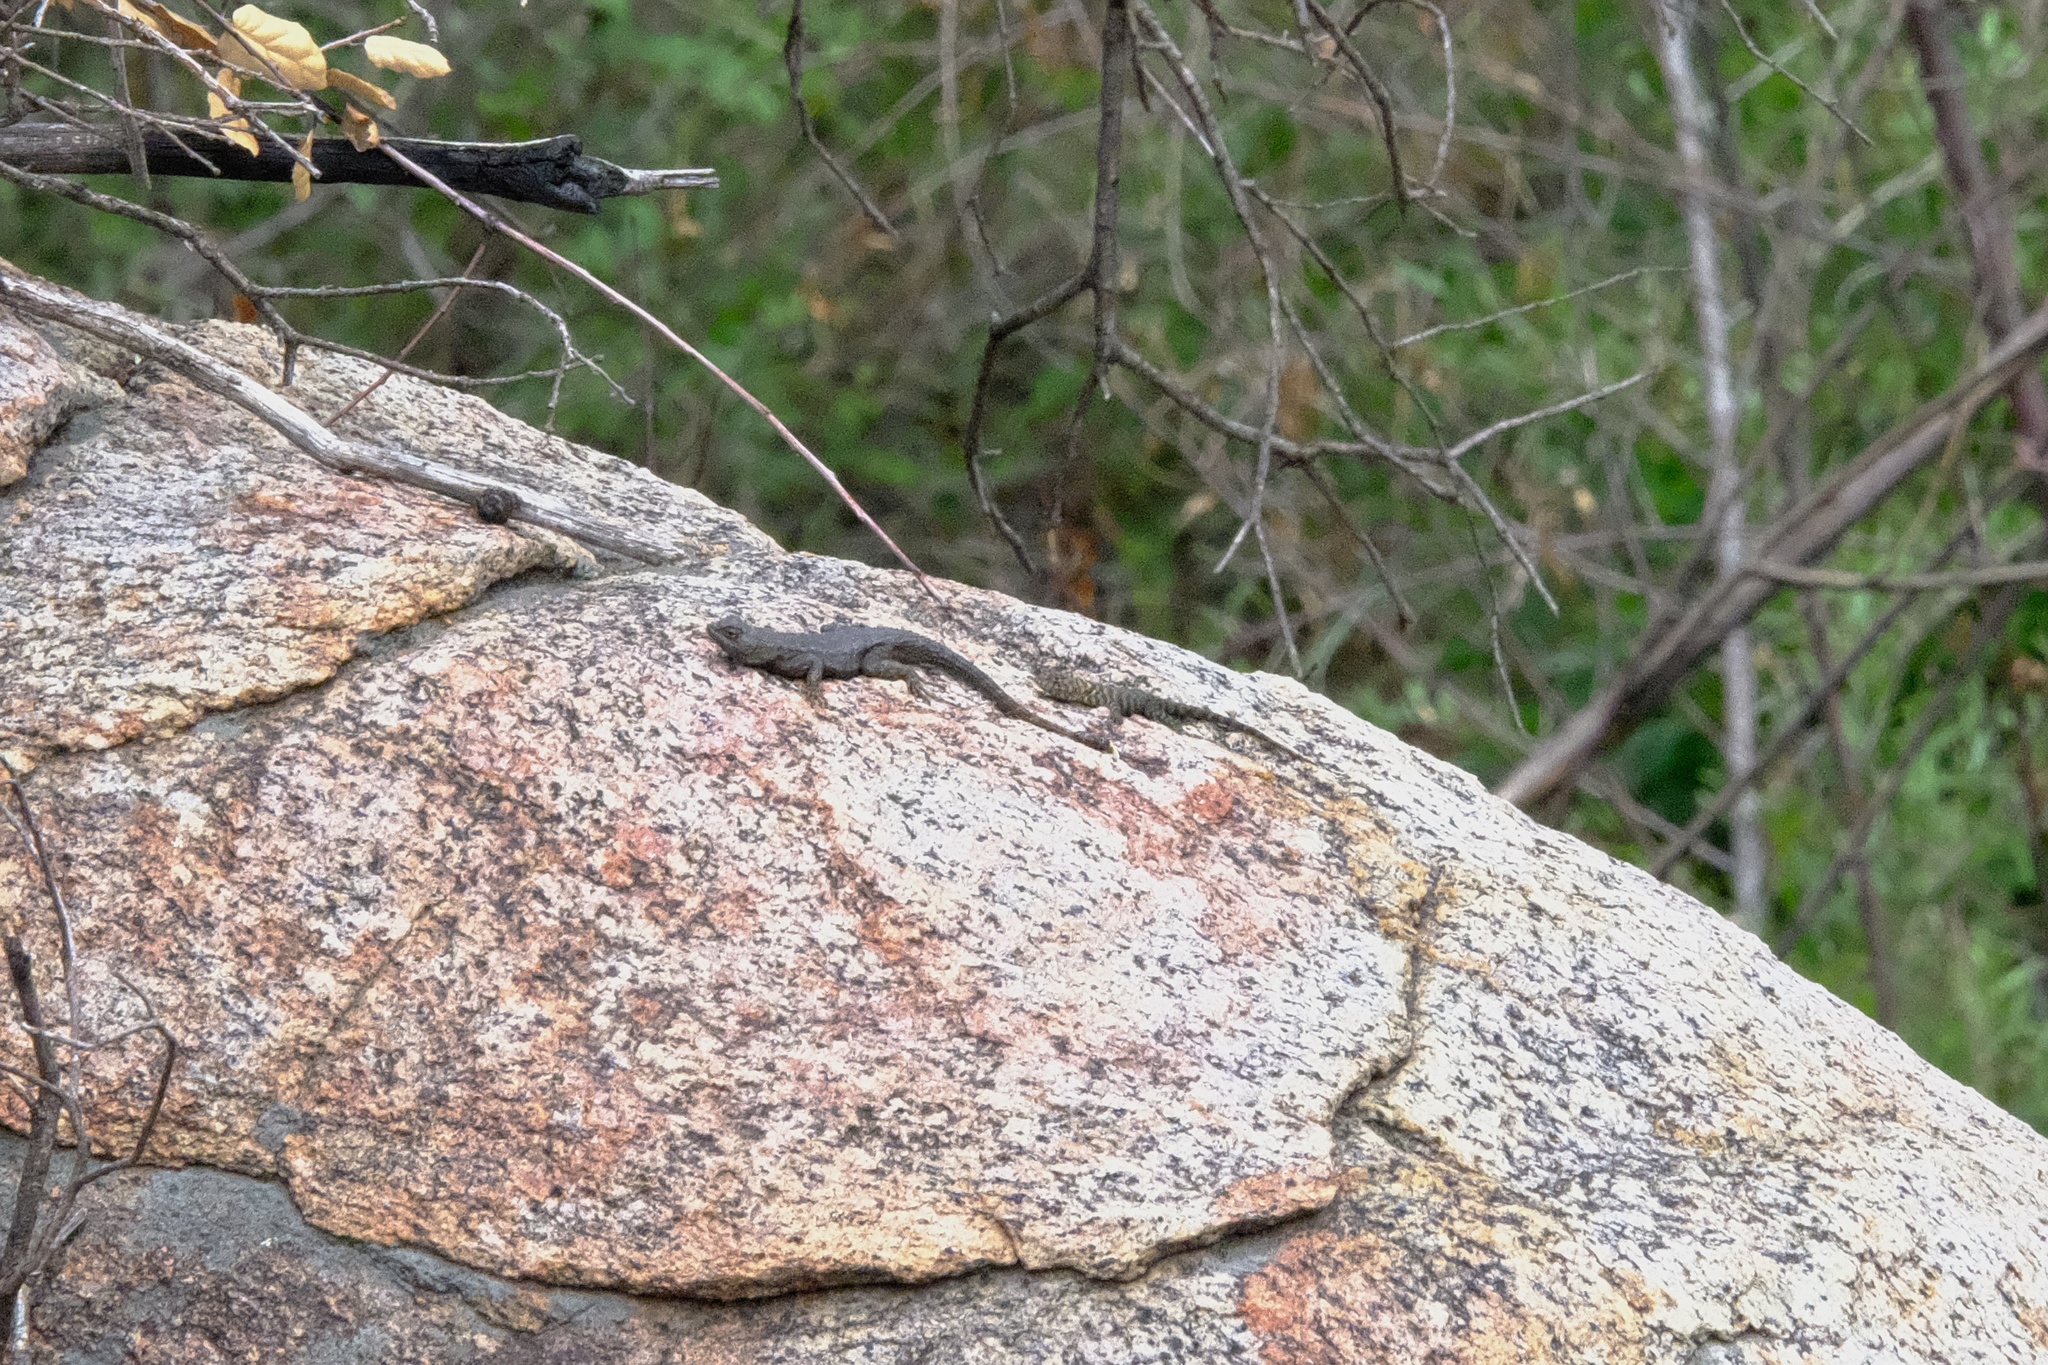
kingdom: Animalia
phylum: Chordata
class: Squamata
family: Phrynosomatidae
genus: Sceloporus
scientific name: Sceloporus occidentalis
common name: Western fence lizard
